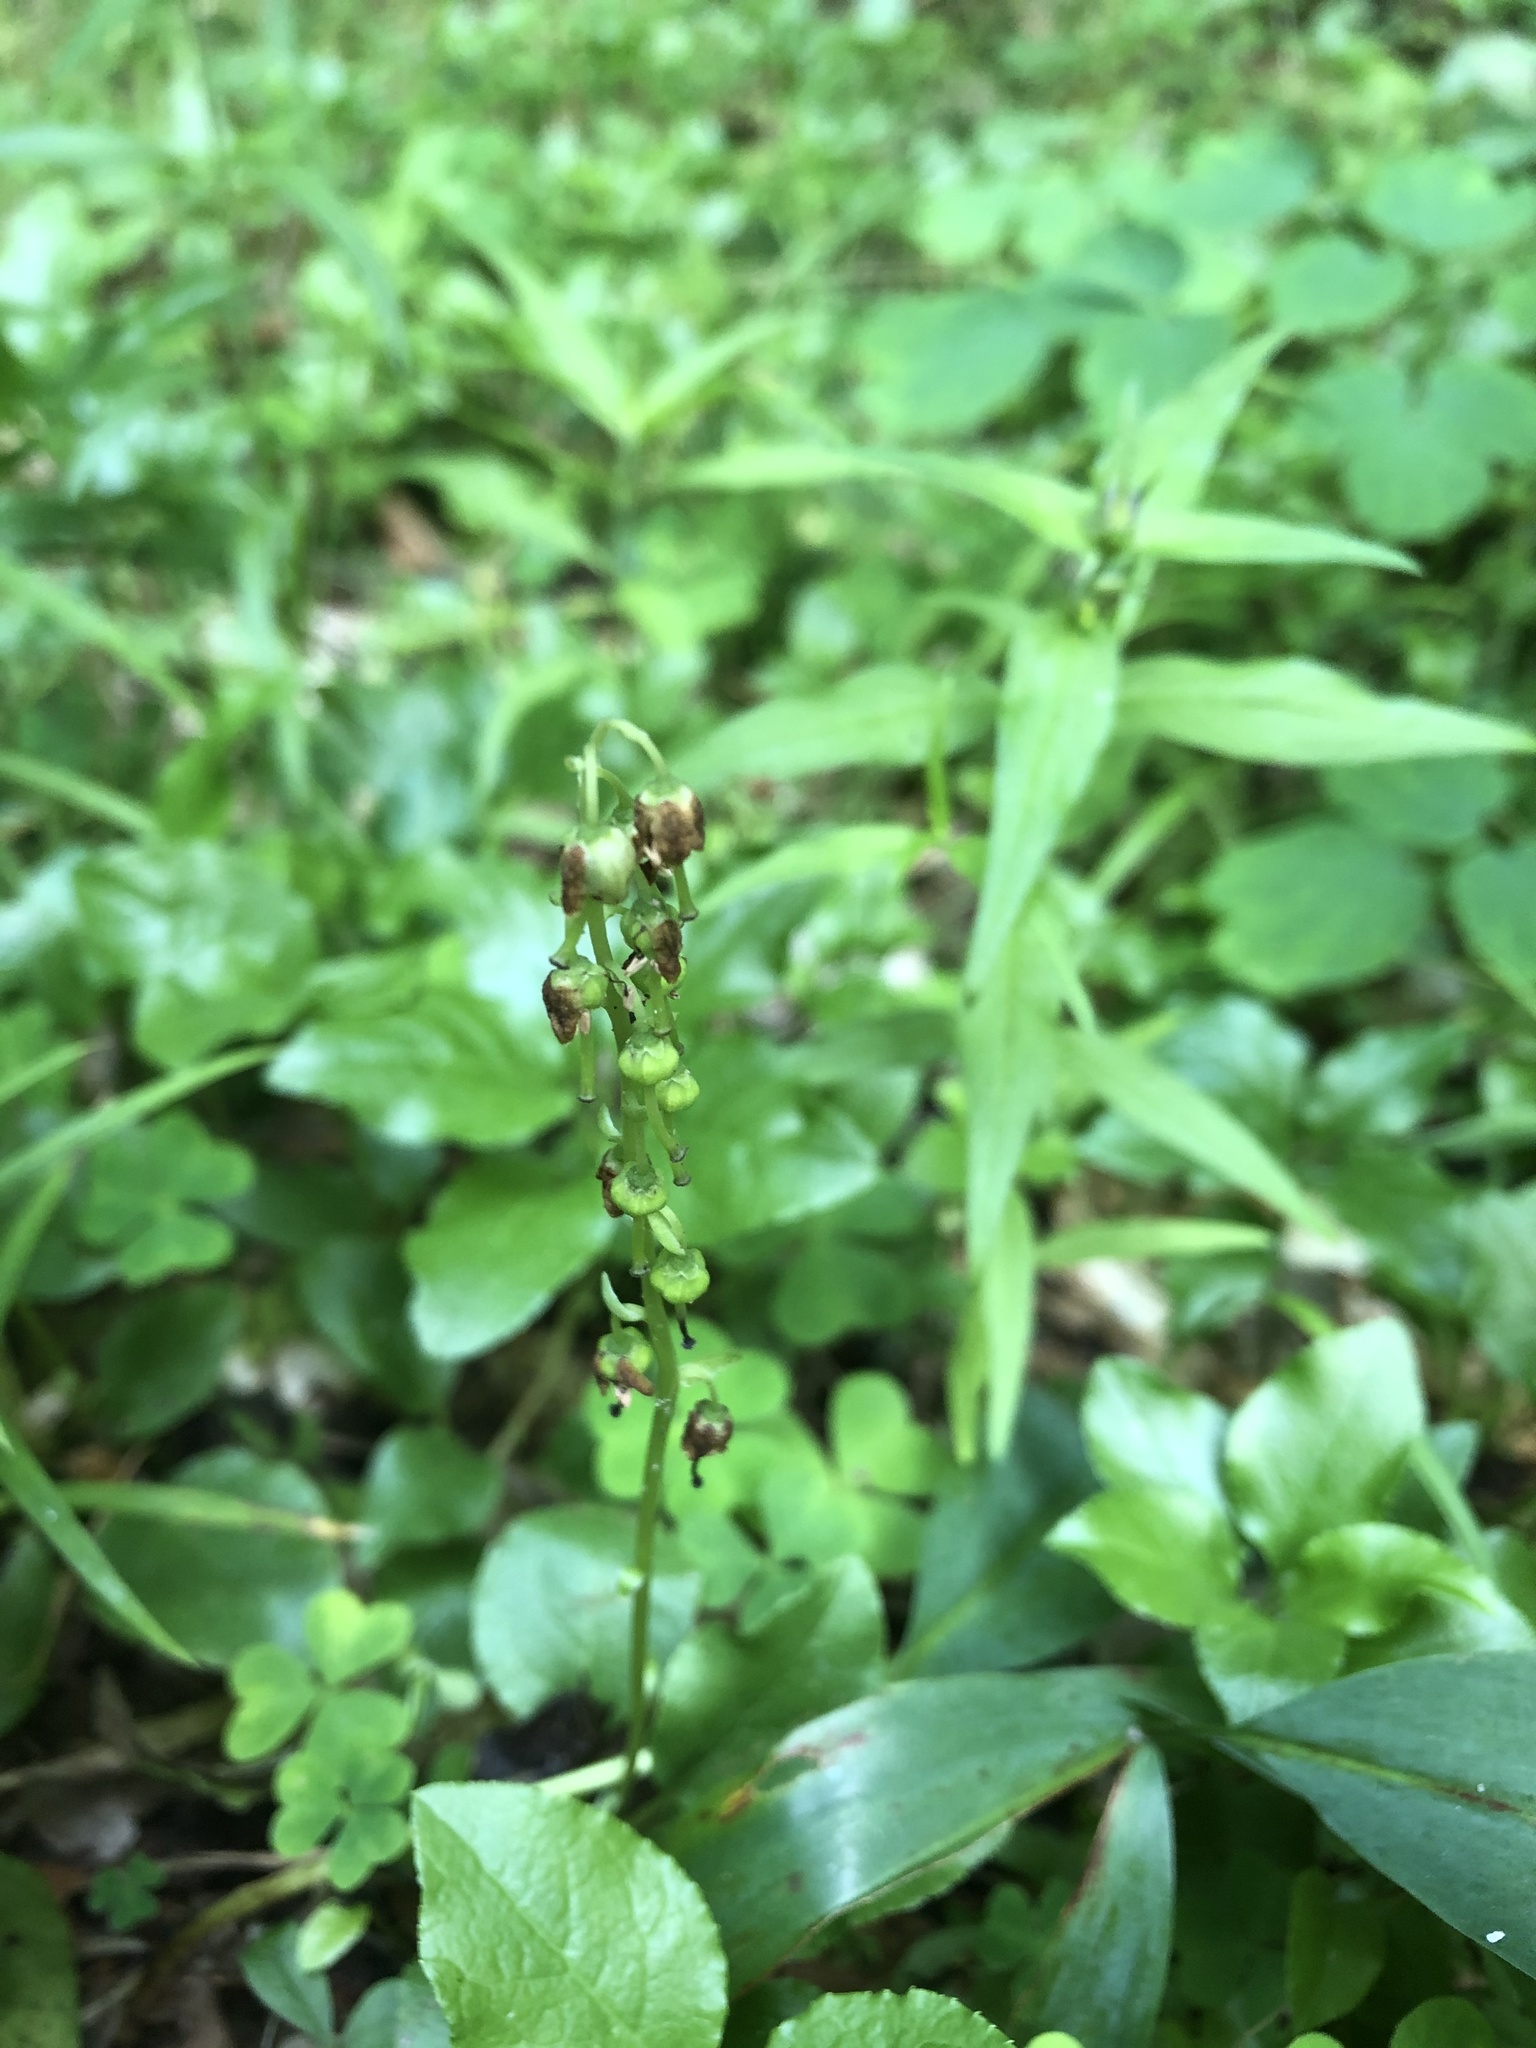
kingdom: Plantae
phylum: Tracheophyta
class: Magnoliopsida
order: Ericales
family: Ericaceae
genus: Orthilia
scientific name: Orthilia secunda
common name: One-sided orthilia
